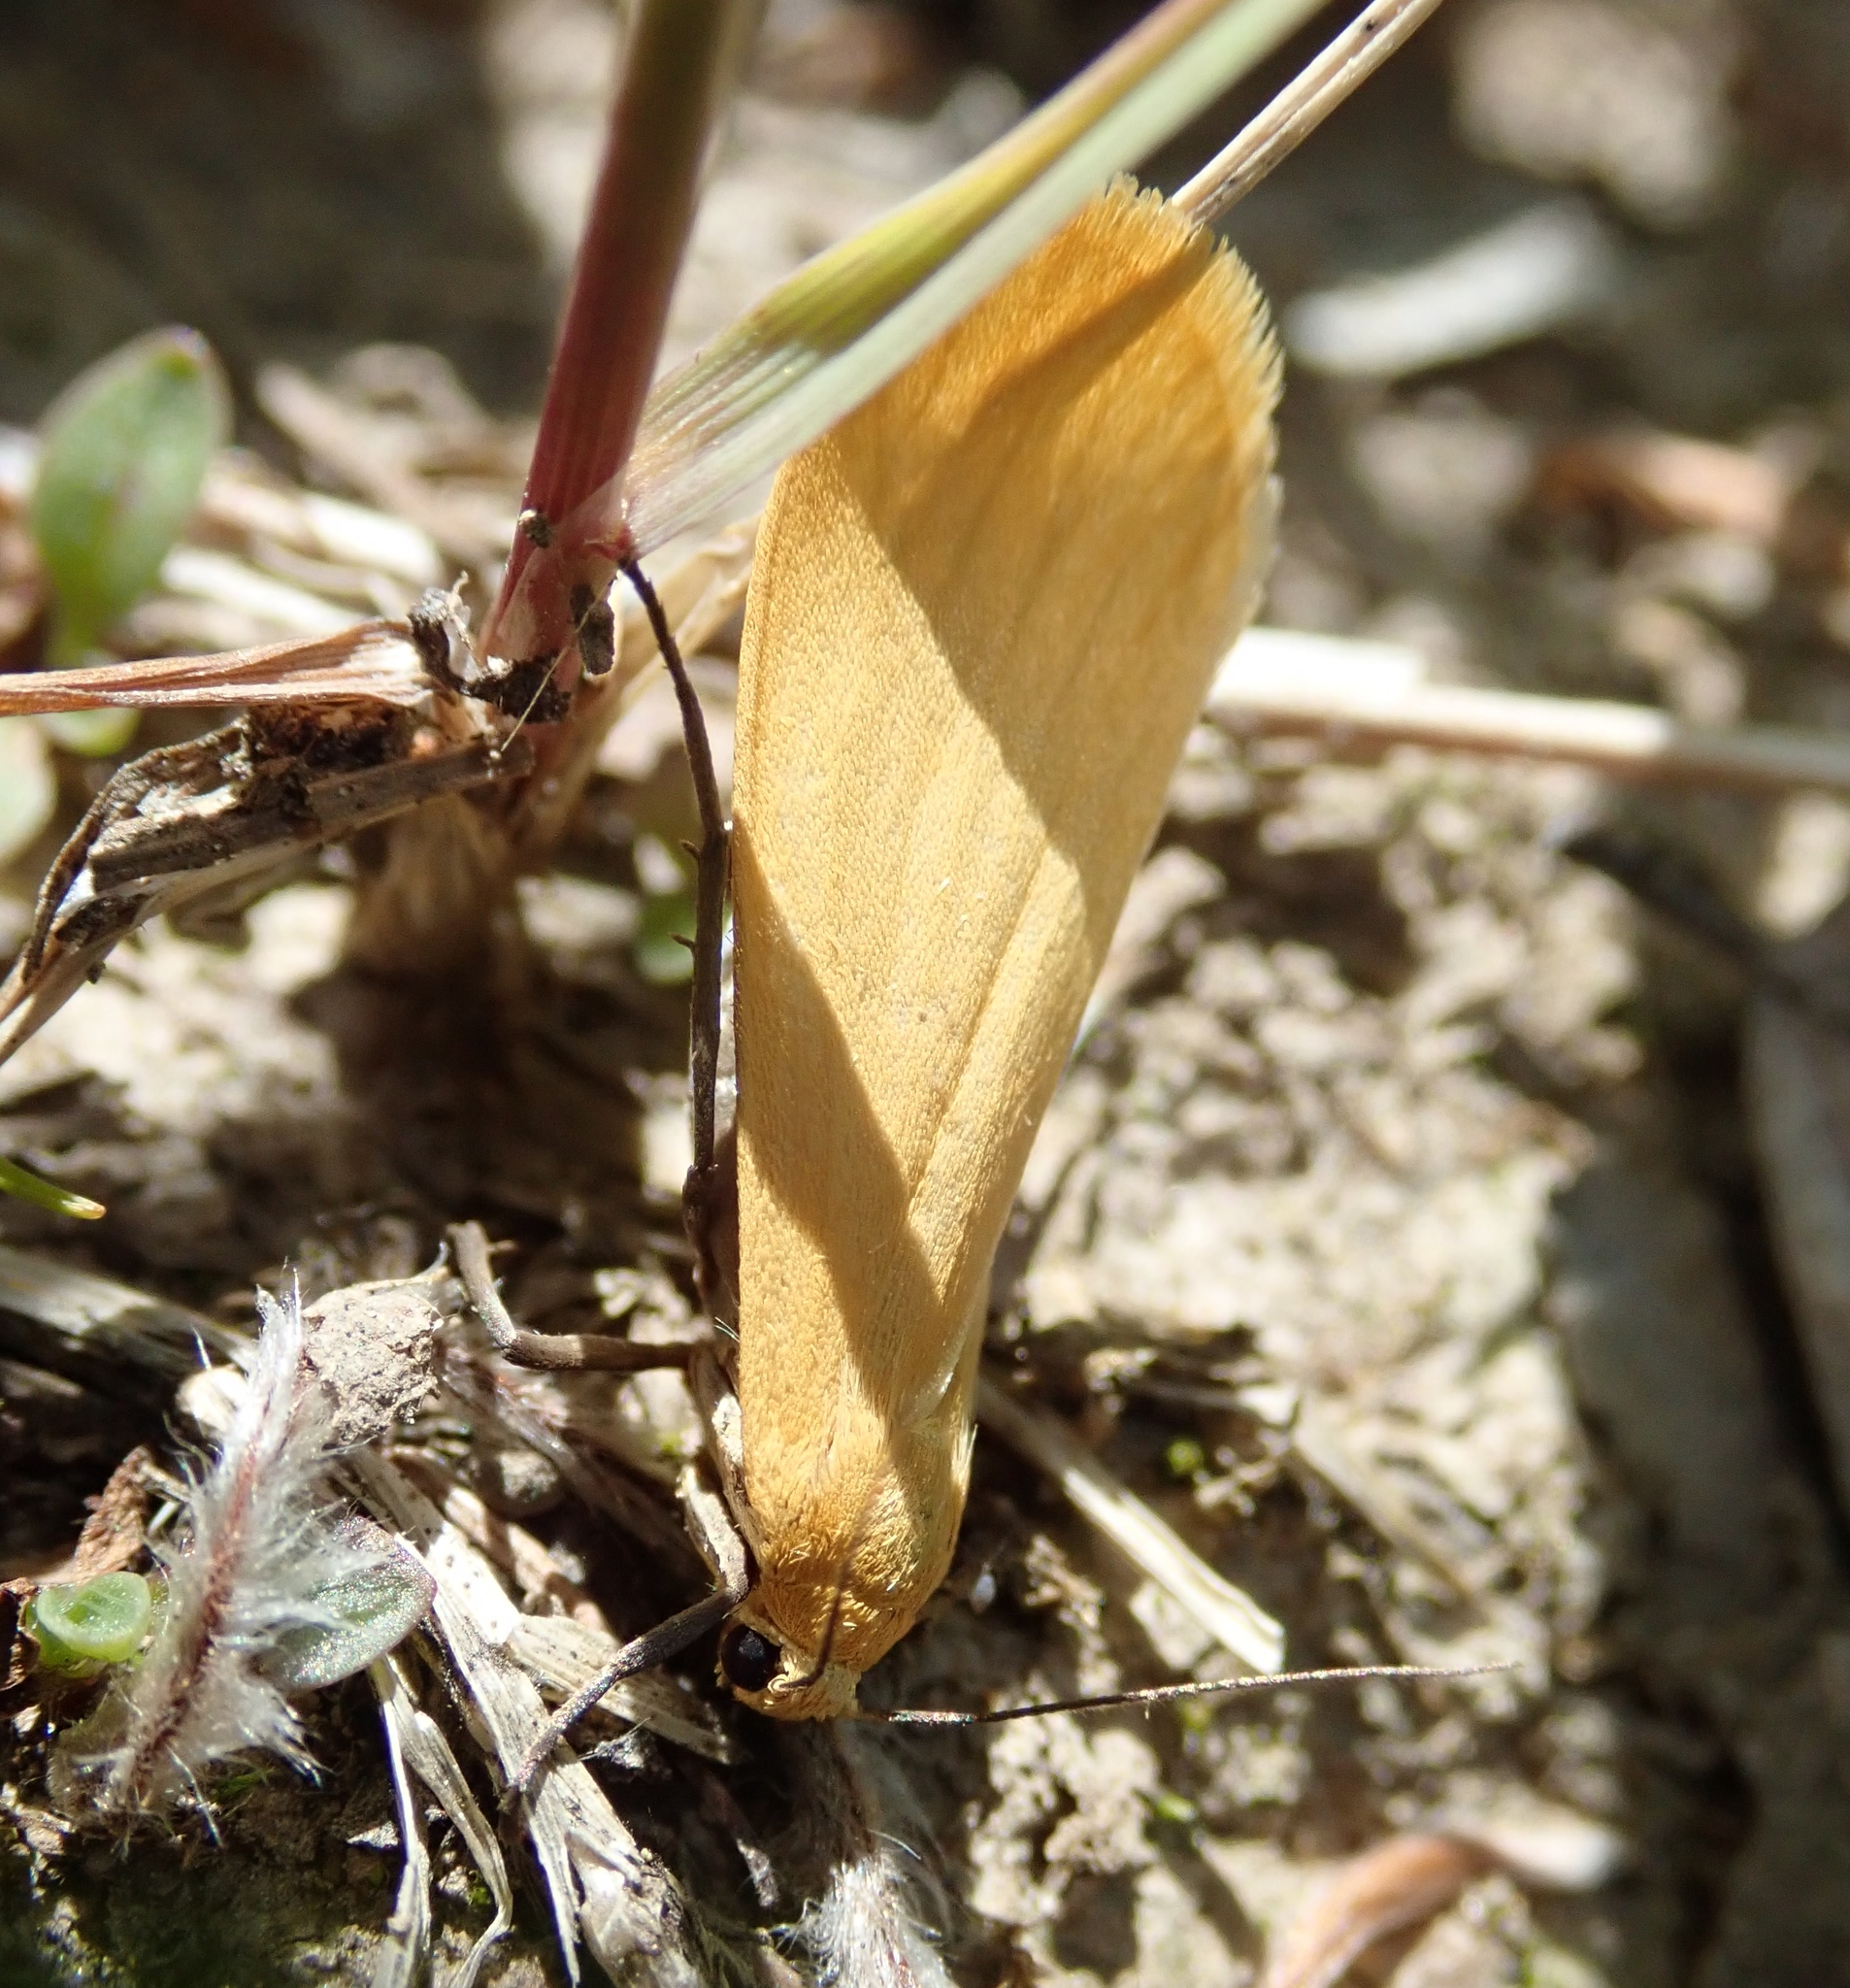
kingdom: Animalia
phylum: Arthropoda
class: Insecta
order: Lepidoptera
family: Erebidae
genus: Wittia
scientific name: Wittia sororcula
